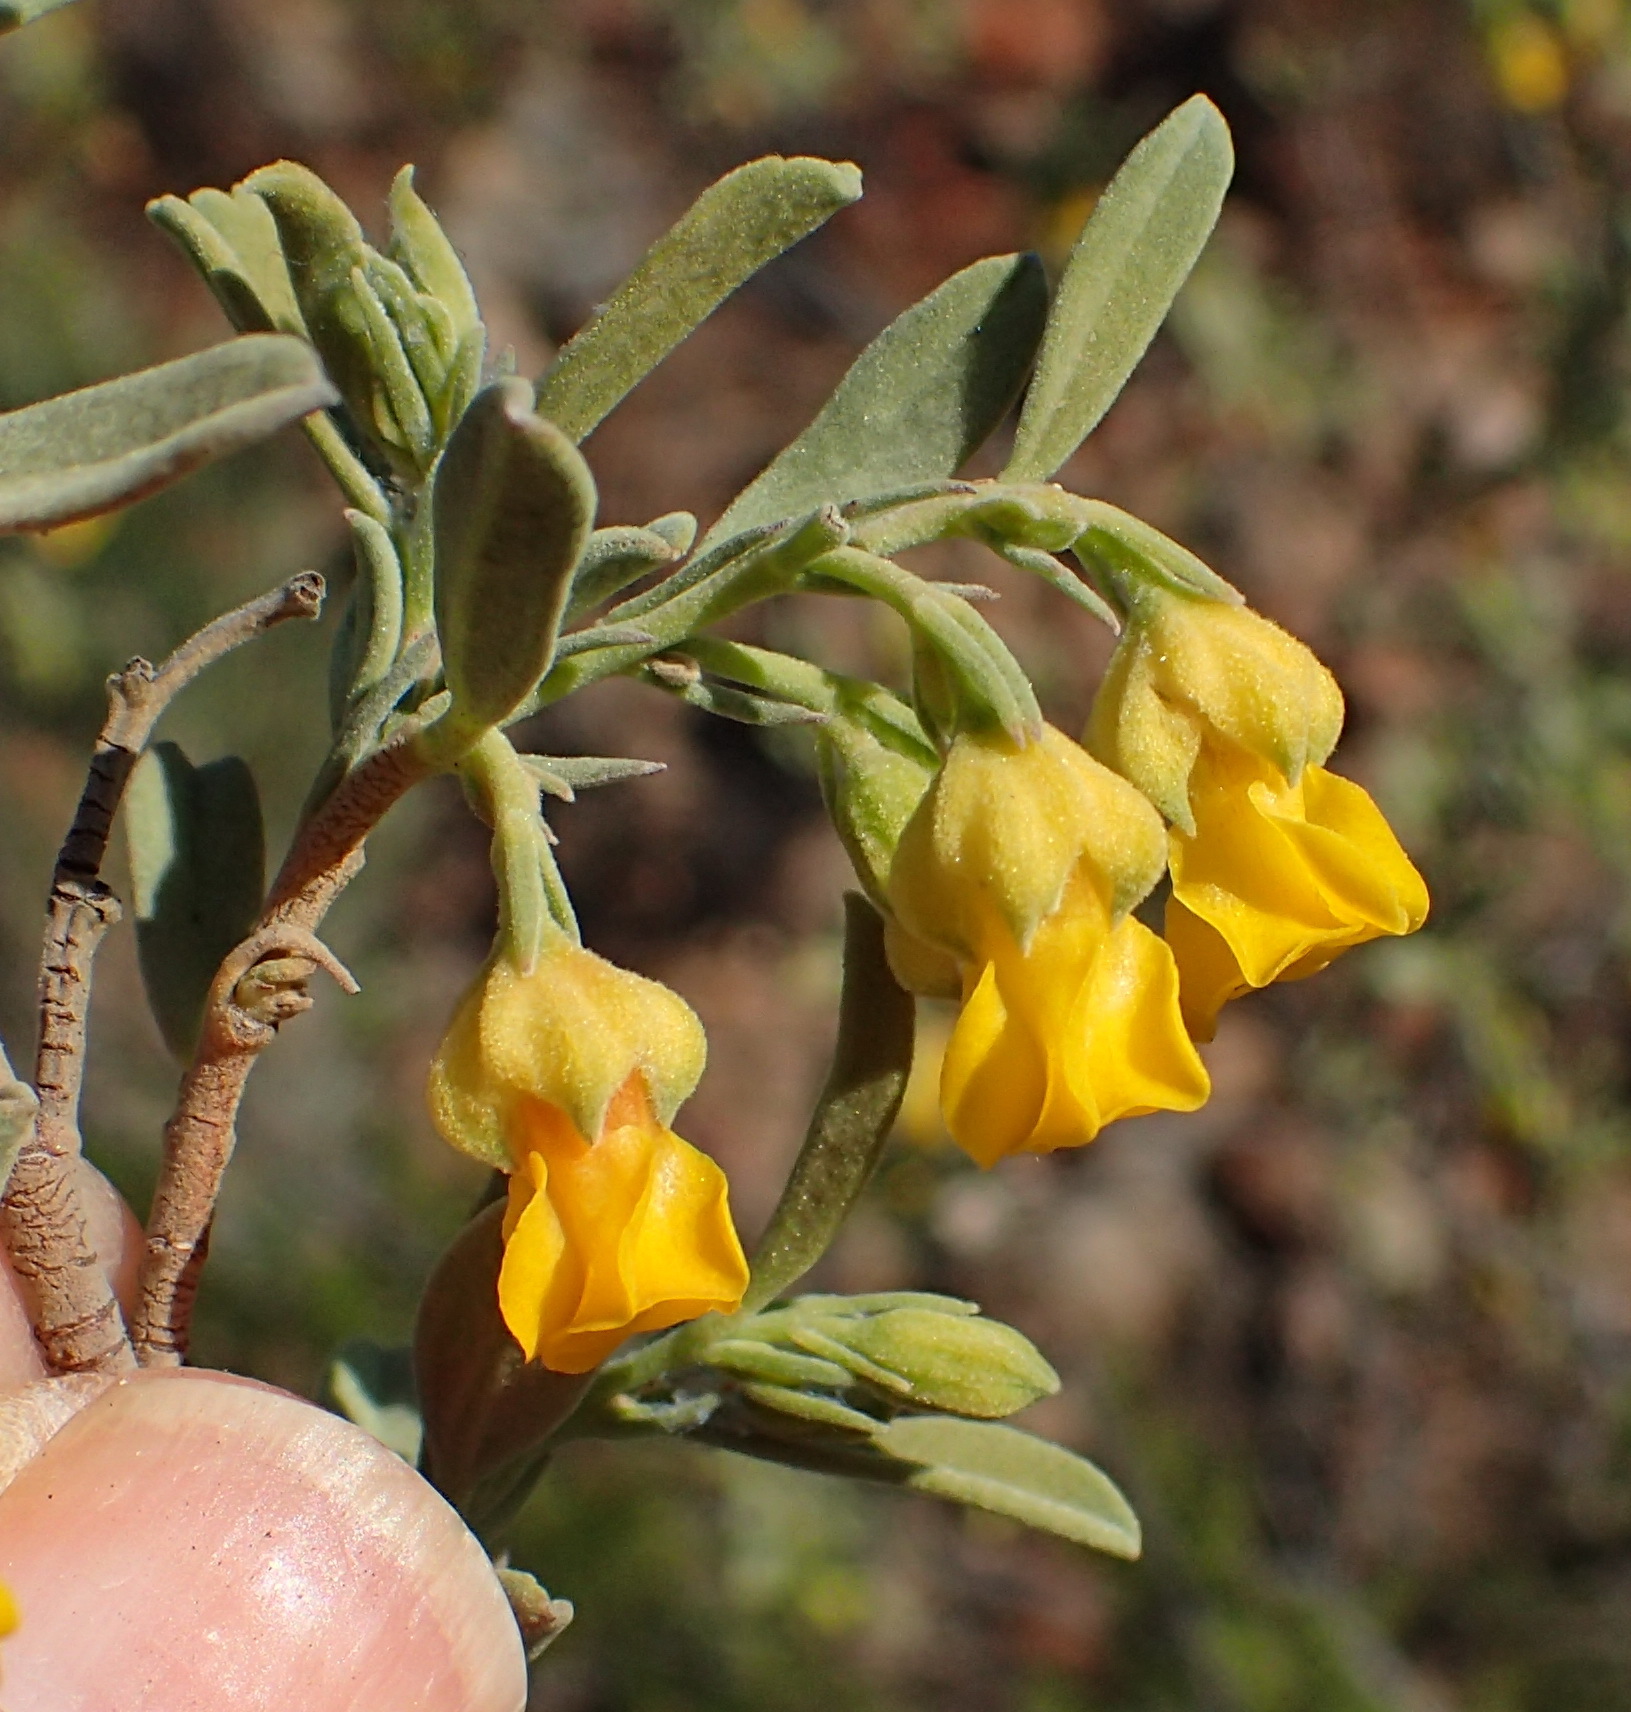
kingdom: Plantae
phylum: Tracheophyta
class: Magnoliopsida
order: Malvales
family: Malvaceae
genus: Hermannia
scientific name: Hermannia odorata
